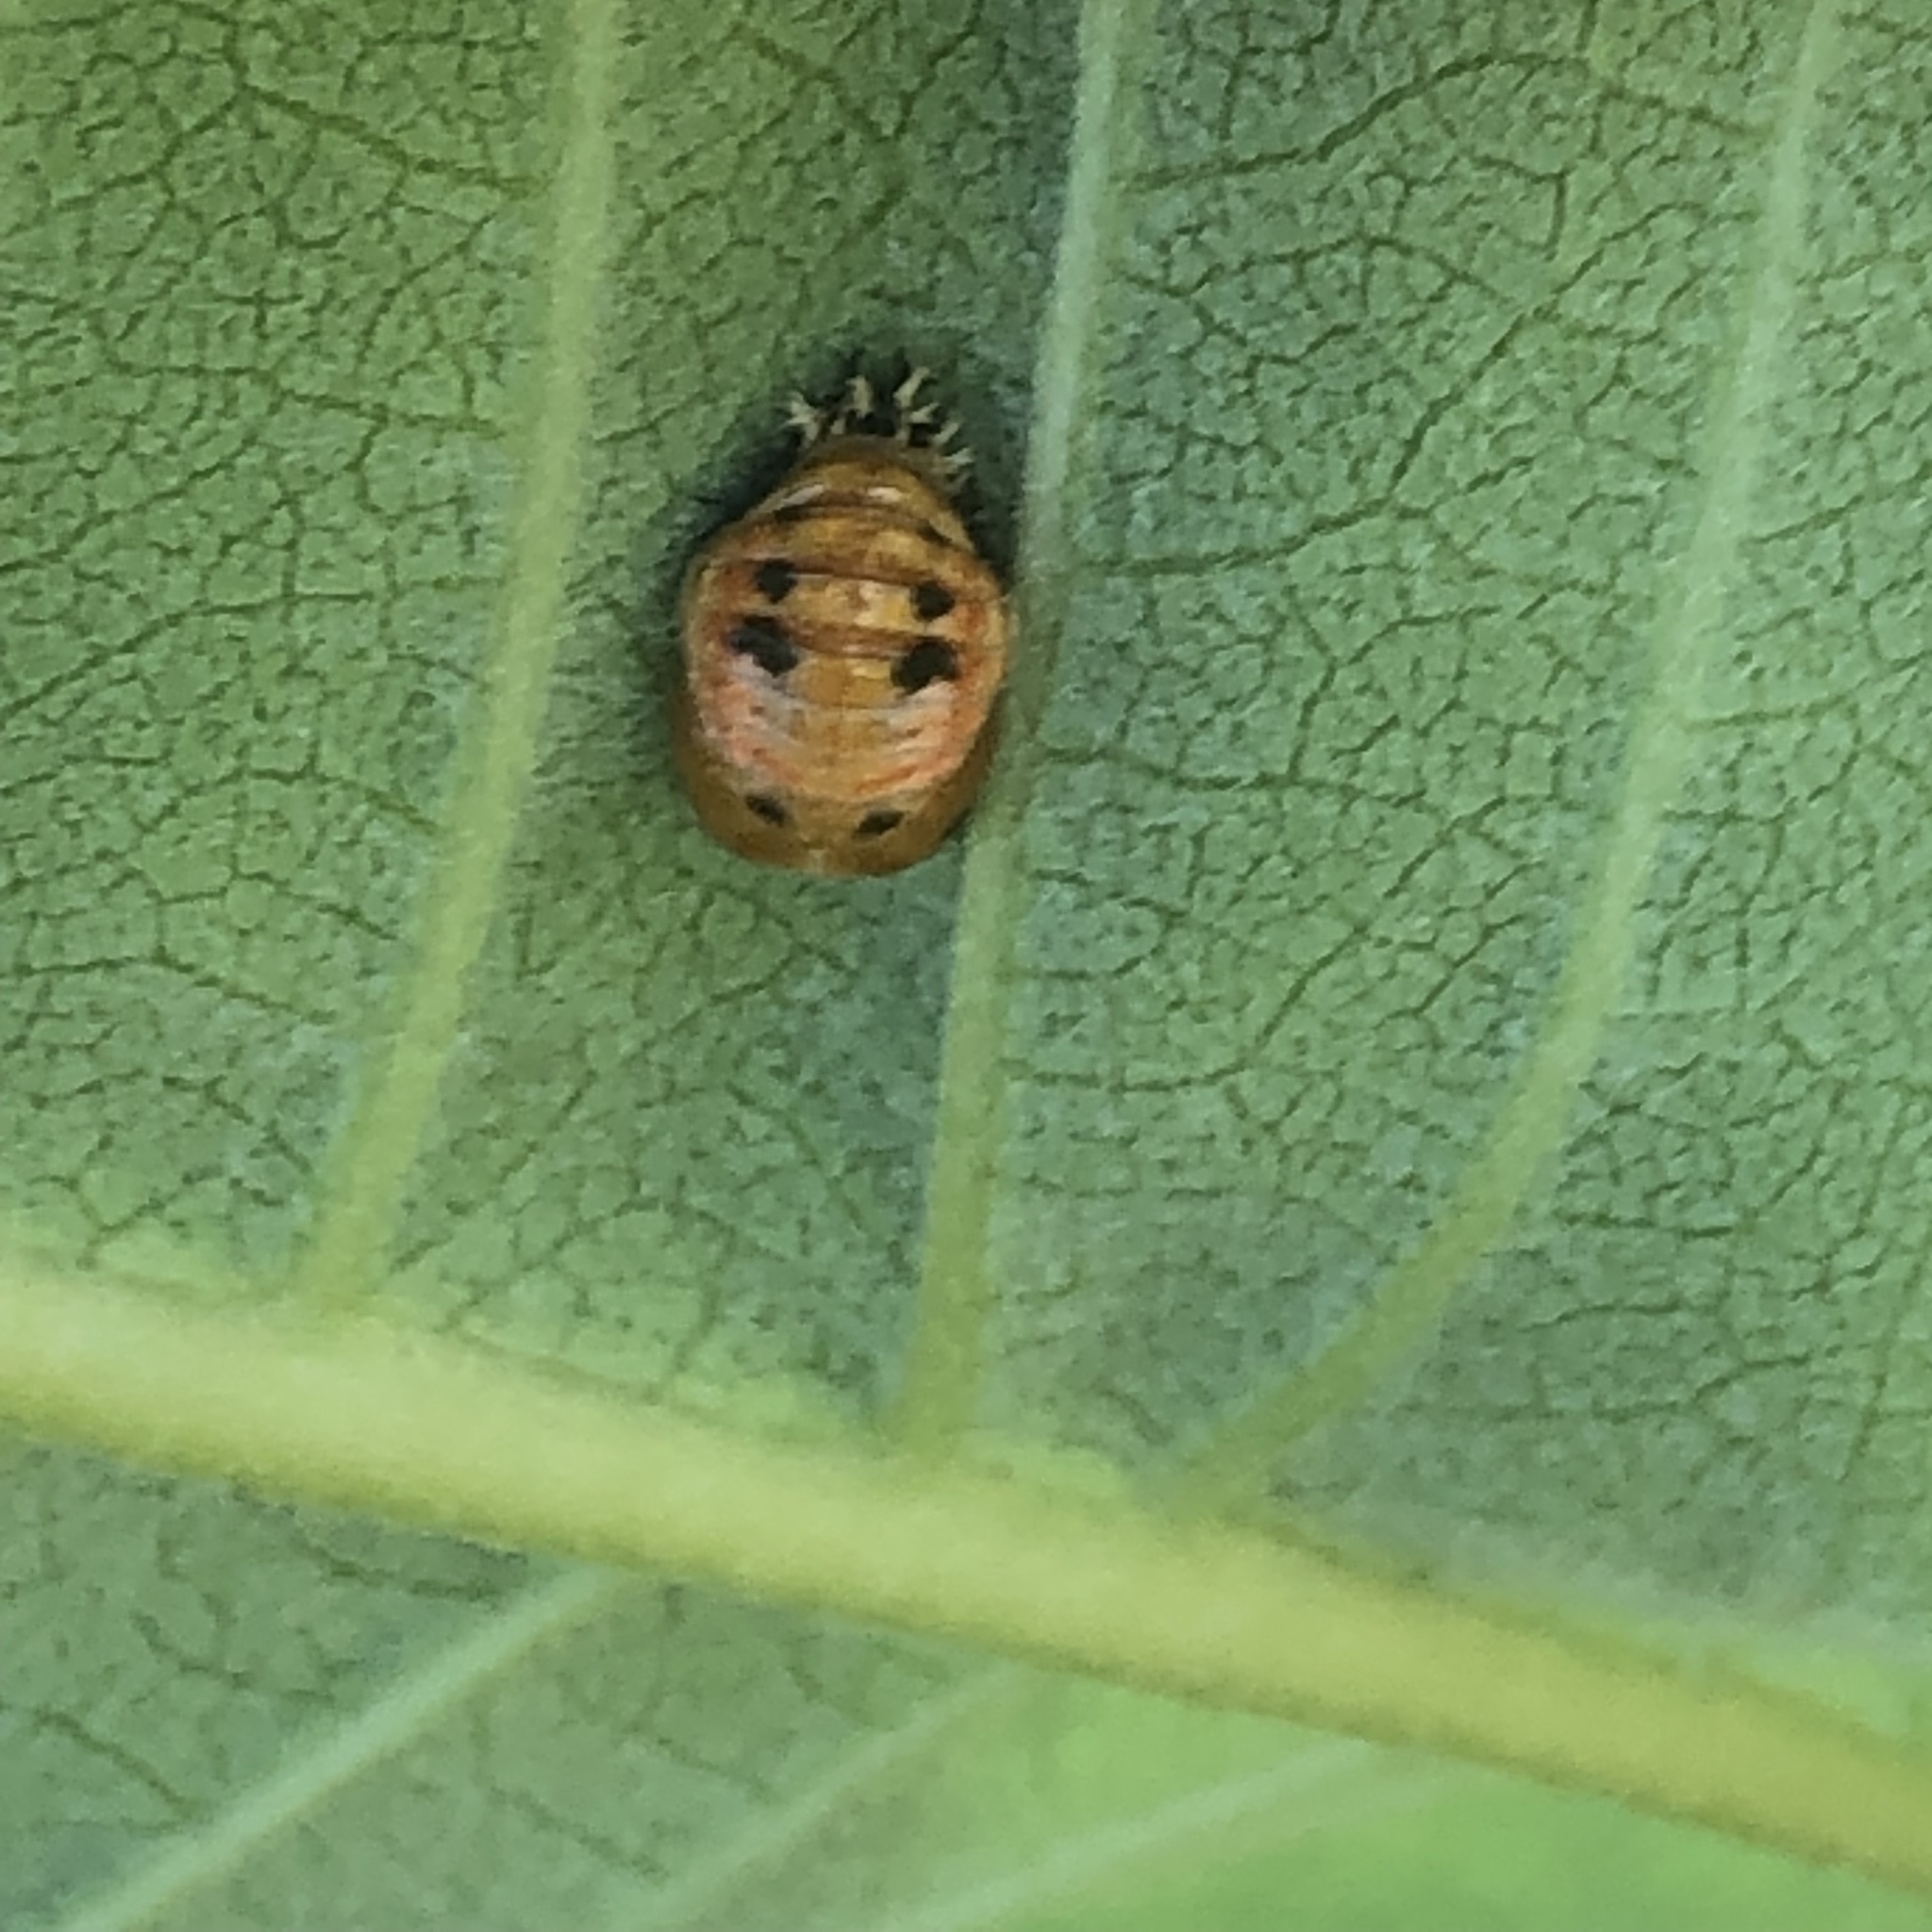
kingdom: Animalia
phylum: Arthropoda
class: Insecta
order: Coleoptera
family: Coccinellidae
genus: Harmonia
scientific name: Harmonia axyridis
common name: Harlequin ladybird
